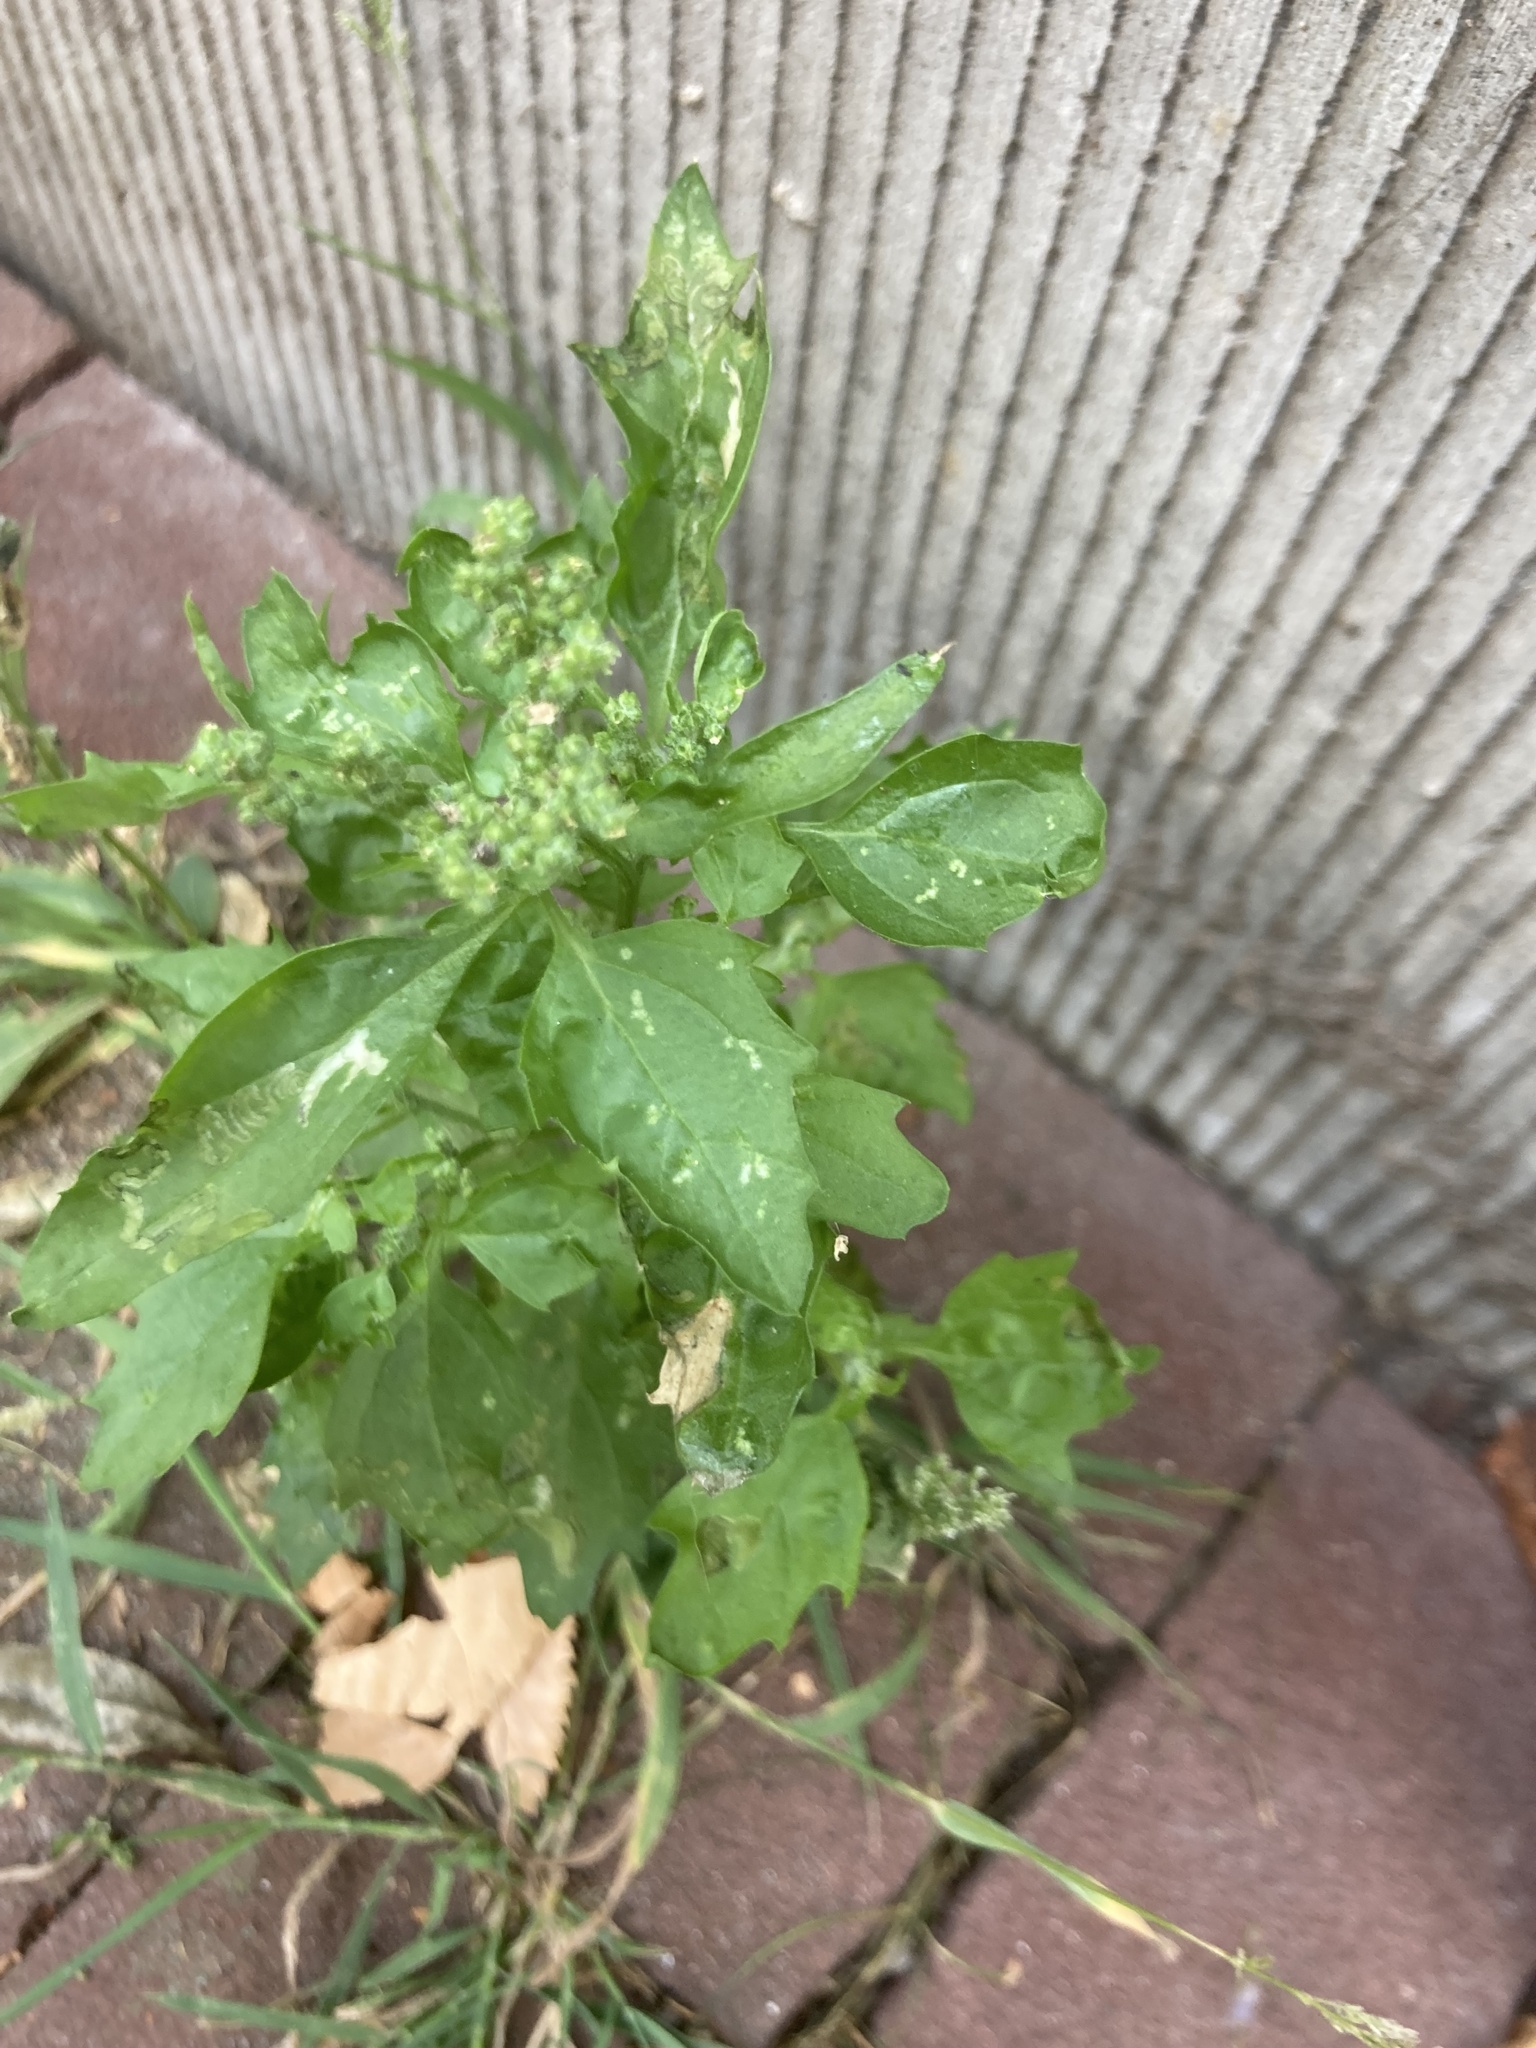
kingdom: Plantae
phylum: Tracheophyta
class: Magnoliopsida
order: Caryophyllales
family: Amaranthaceae
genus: Chenopodiastrum
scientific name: Chenopodiastrum murale
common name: Sowbane
